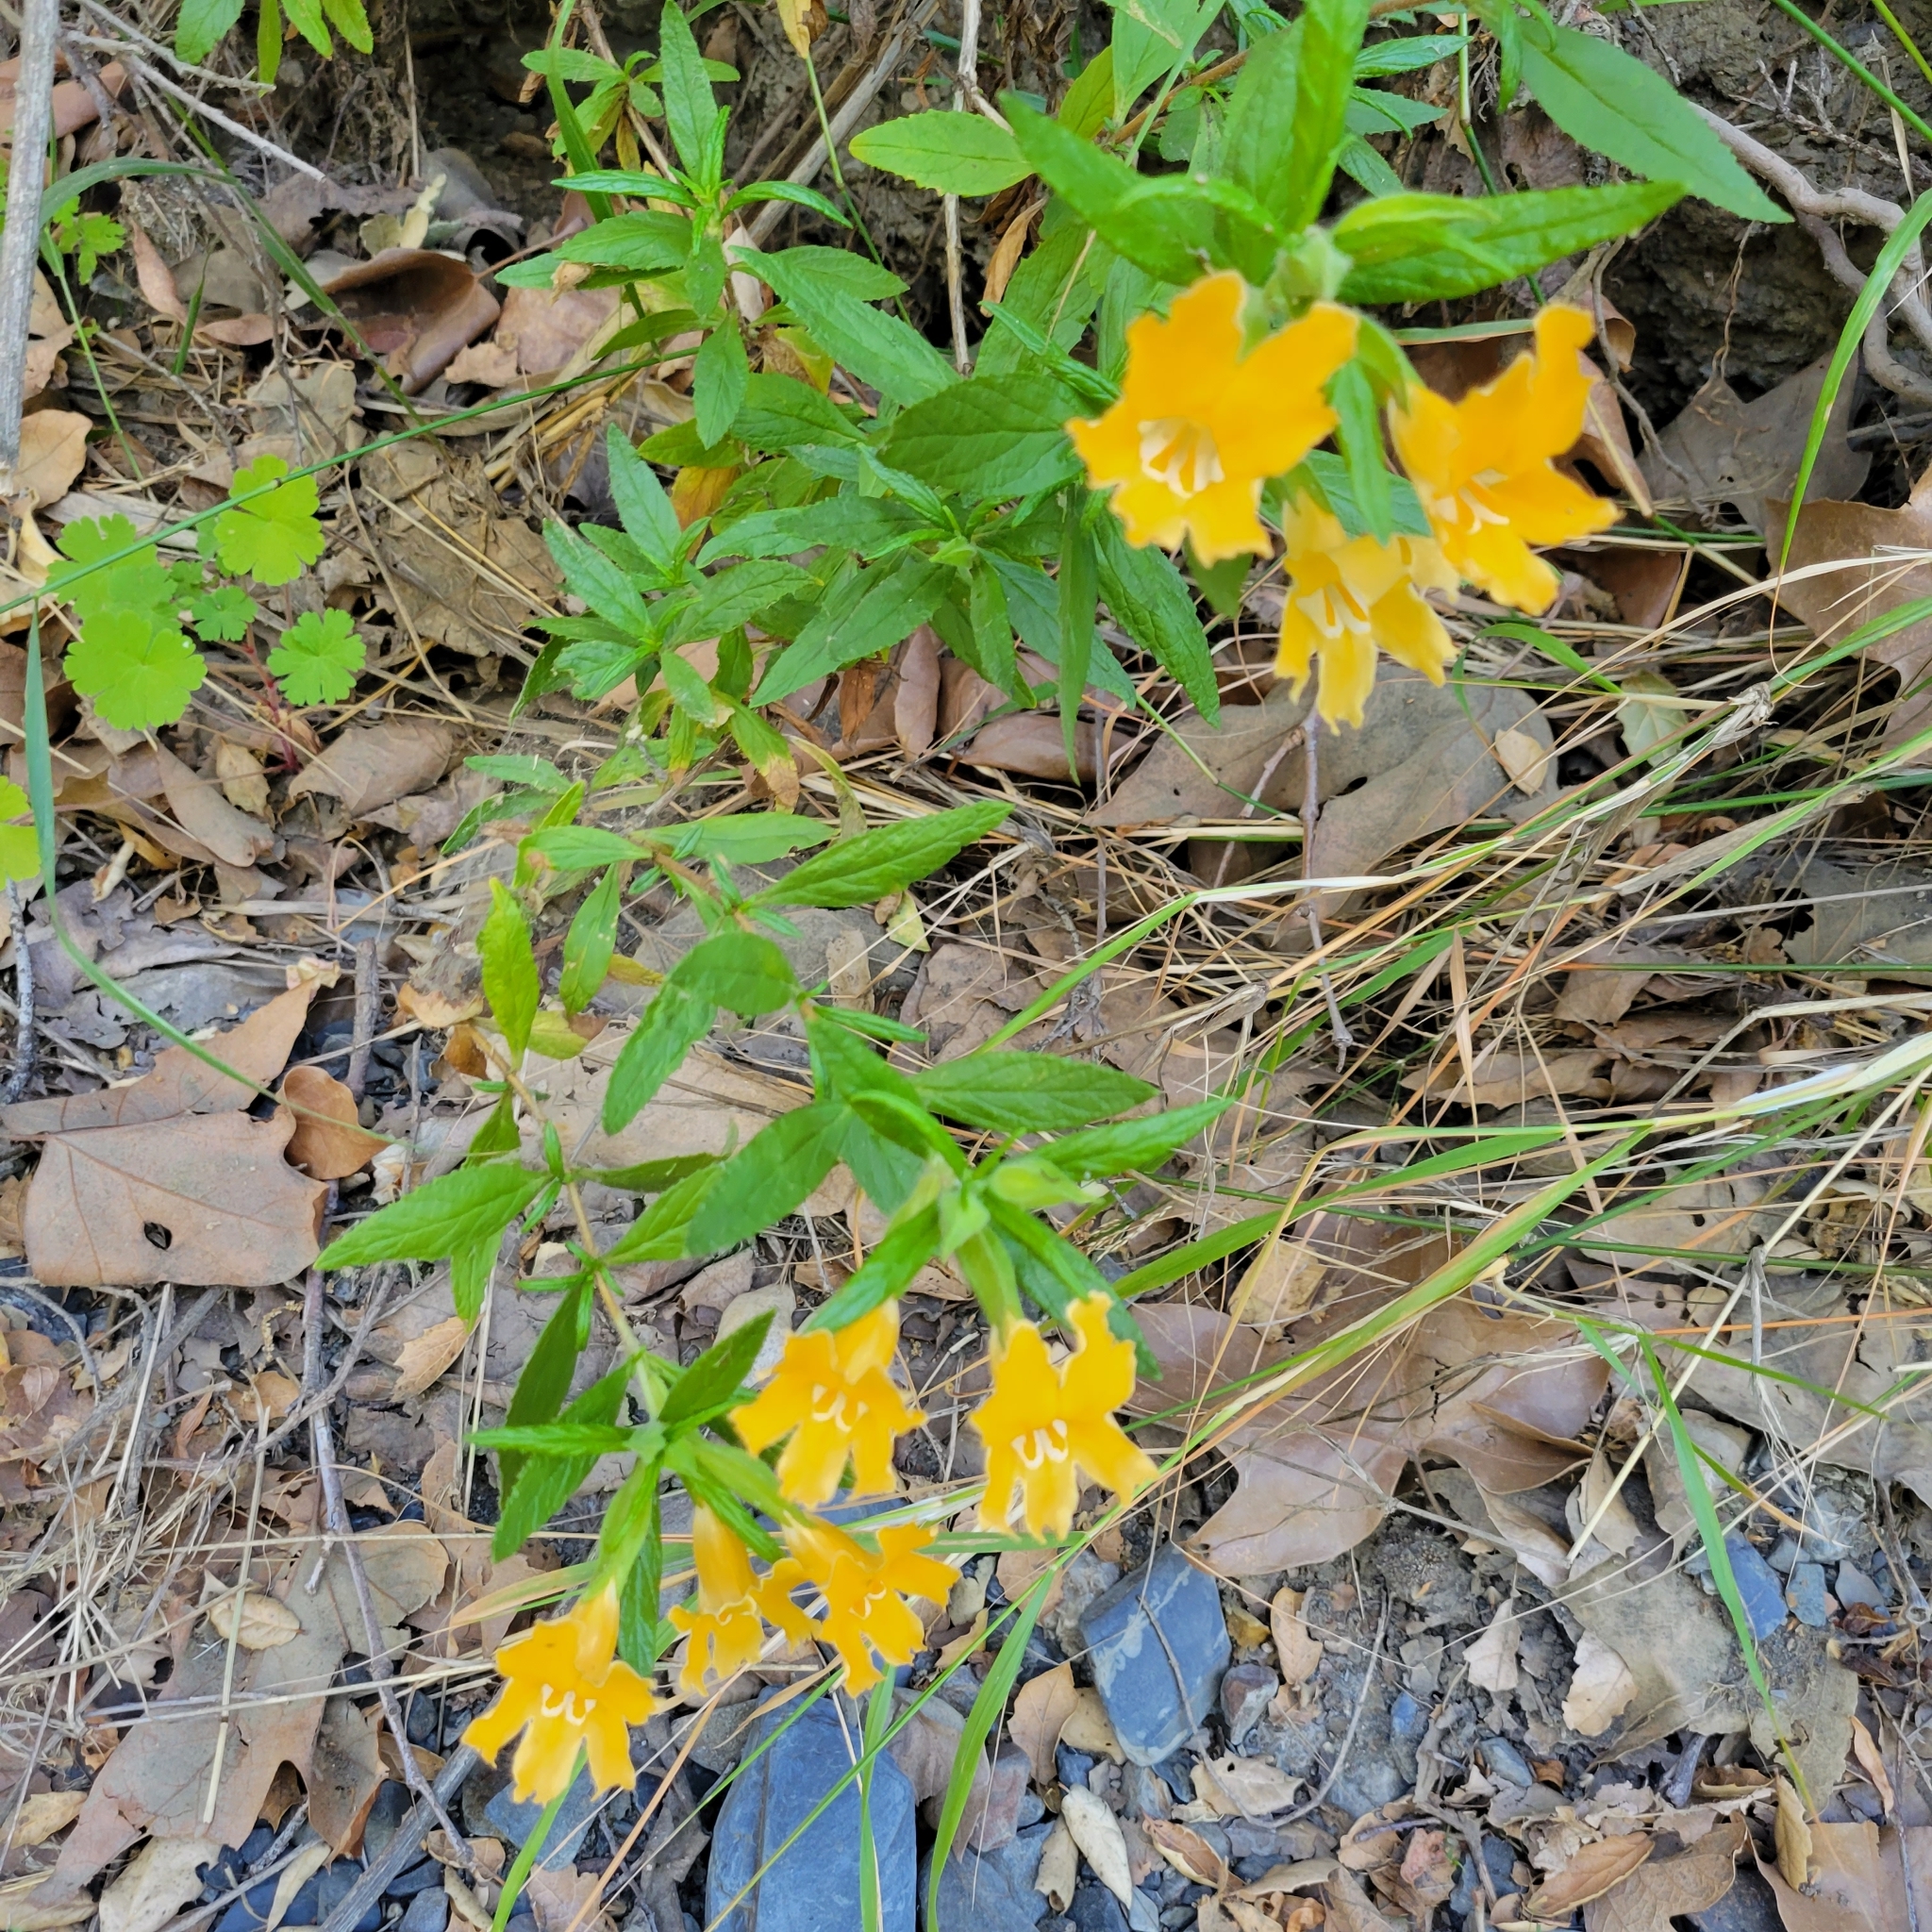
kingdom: Plantae
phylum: Tracheophyta
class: Magnoliopsida
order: Lamiales
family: Phrymaceae
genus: Diplacus
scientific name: Diplacus longiflorus
